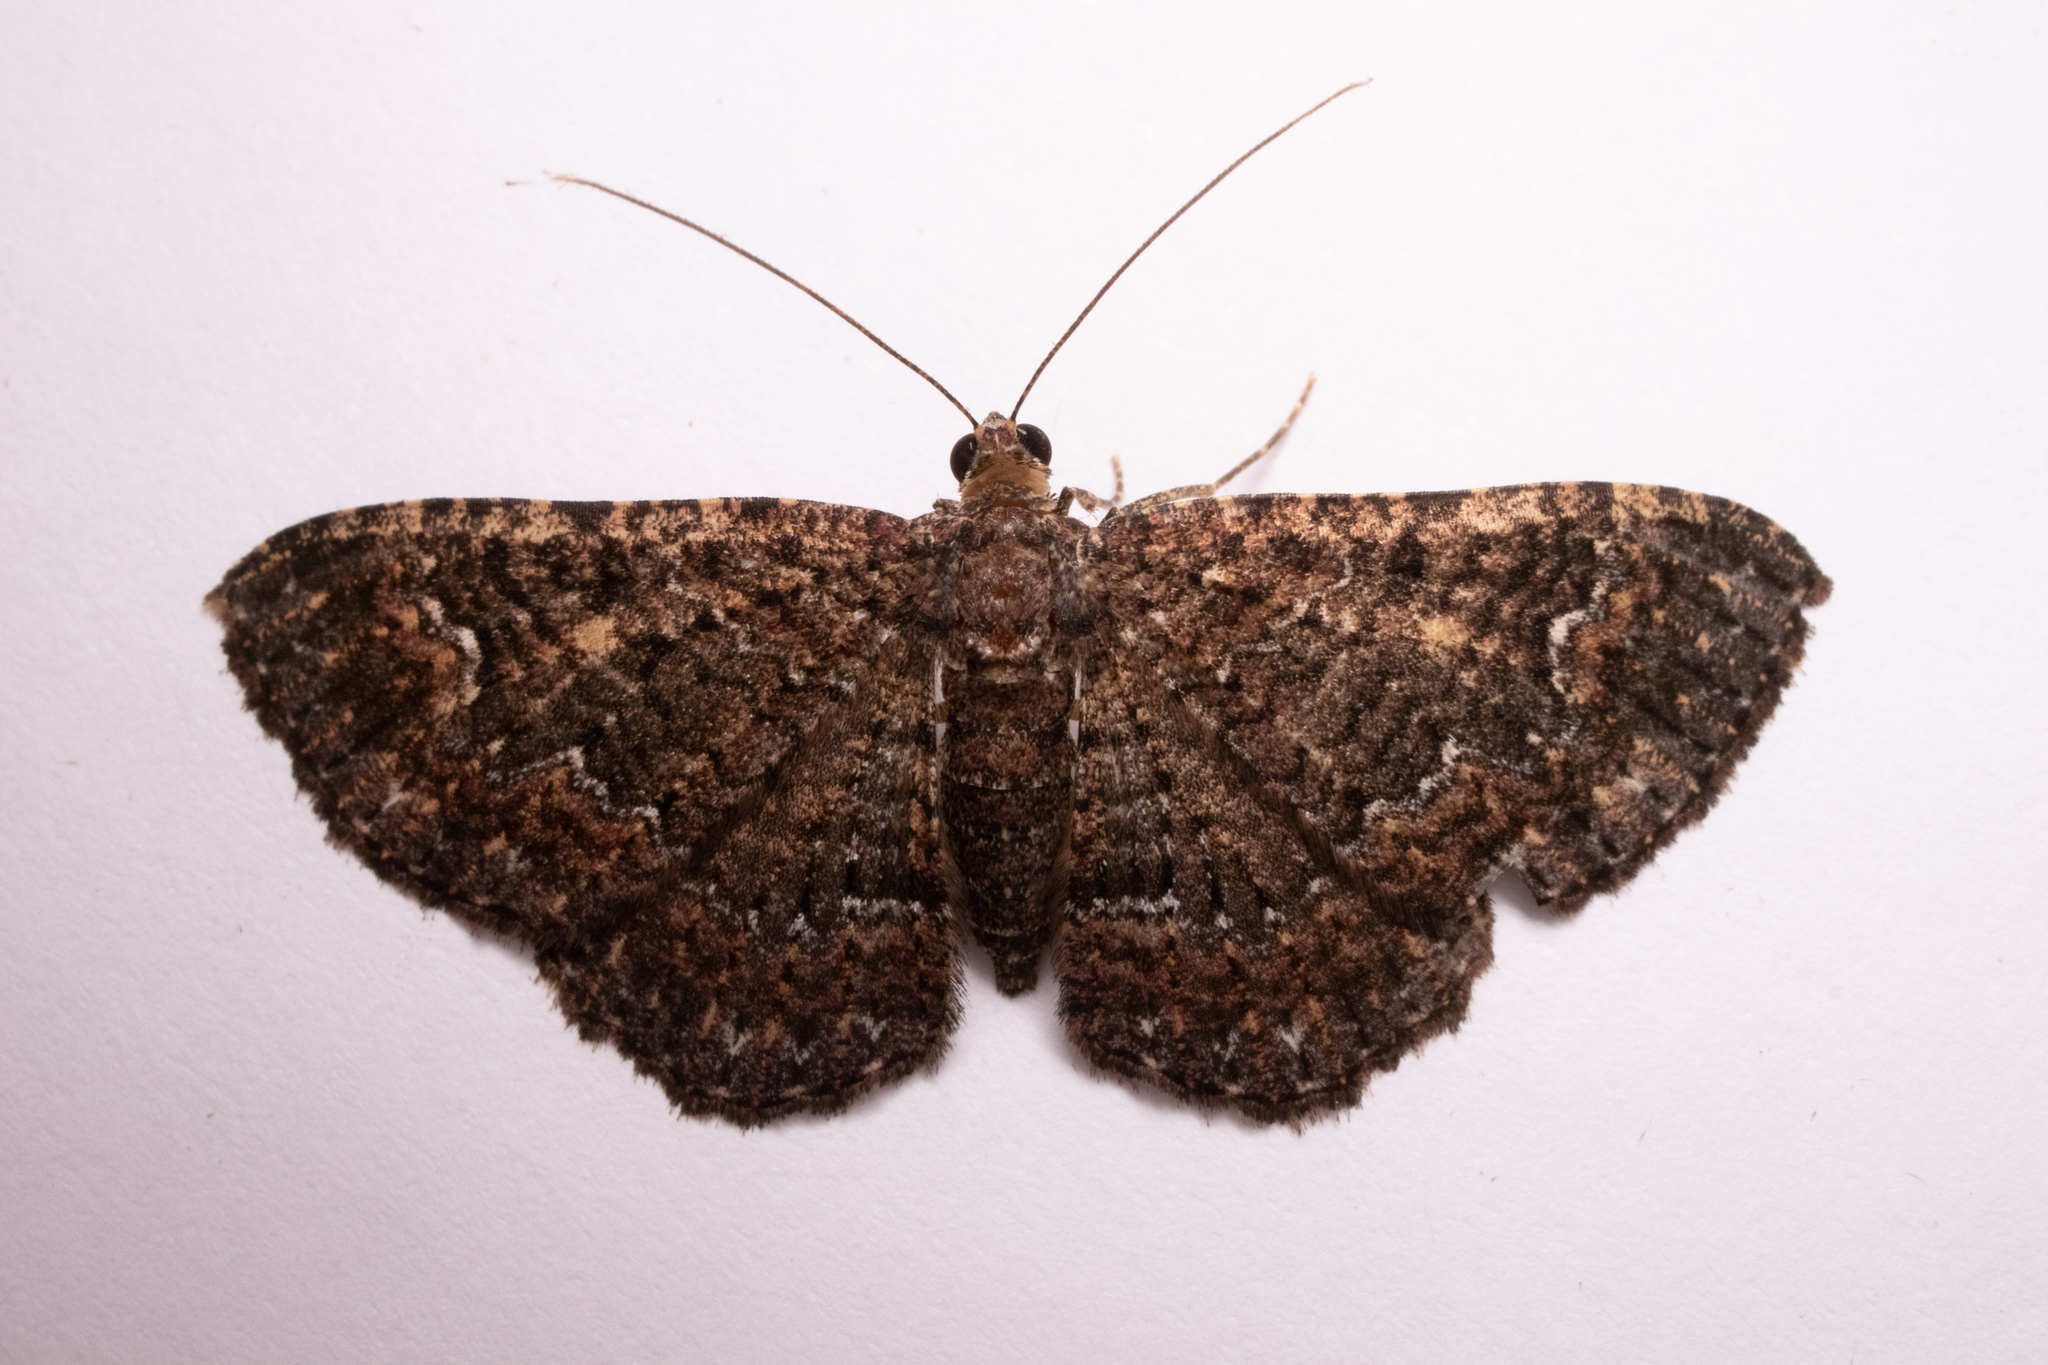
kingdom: Animalia
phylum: Arthropoda
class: Insecta
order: Lepidoptera
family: Geometridae
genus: Disclisioprocta
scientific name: Disclisioprocta stellata
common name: Somber carpet
